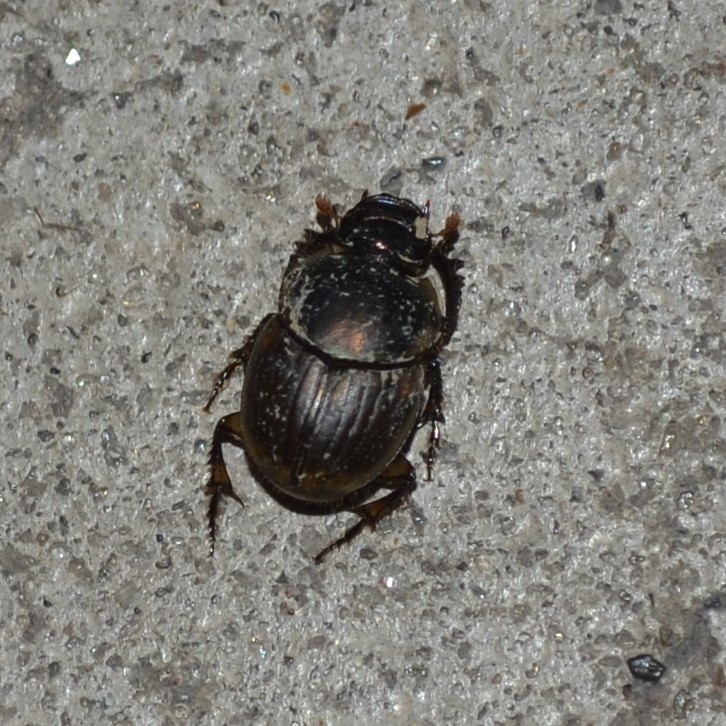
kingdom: Animalia
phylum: Arthropoda
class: Insecta
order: Coleoptera
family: Scarabaeidae
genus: Digitonthophagus
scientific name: Digitonthophagus gazella
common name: Brown dung beetle
